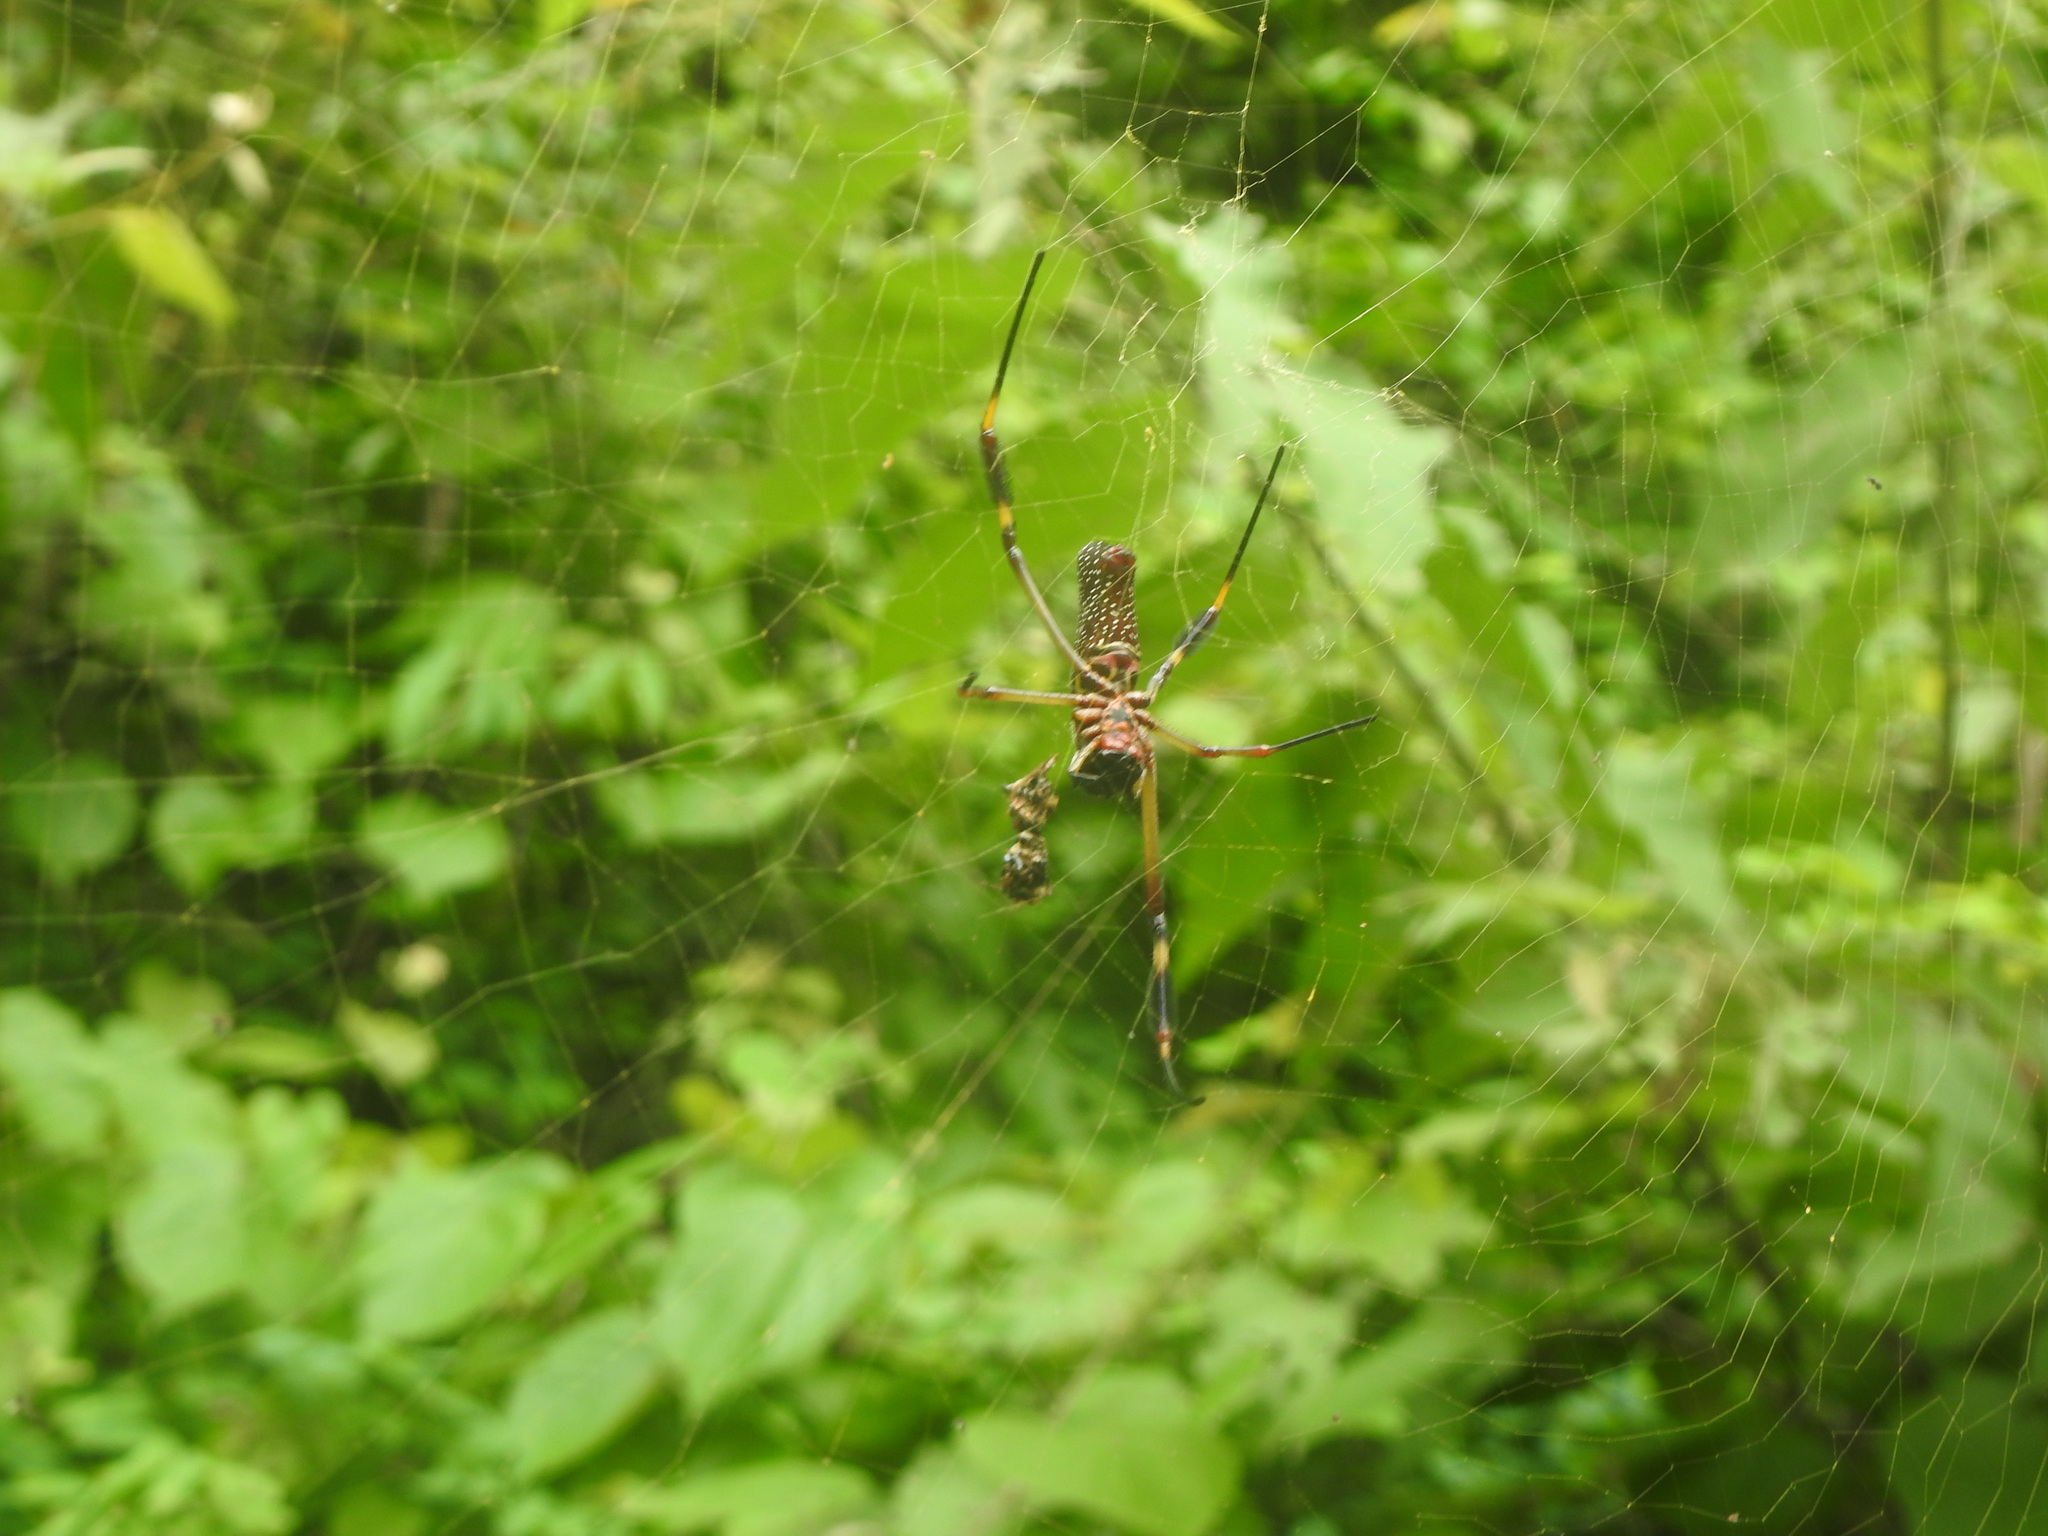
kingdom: Animalia
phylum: Arthropoda
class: Arachnida
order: Araneae
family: Araneidae
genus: Trichonephila
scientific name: Trichonephila clavipes
